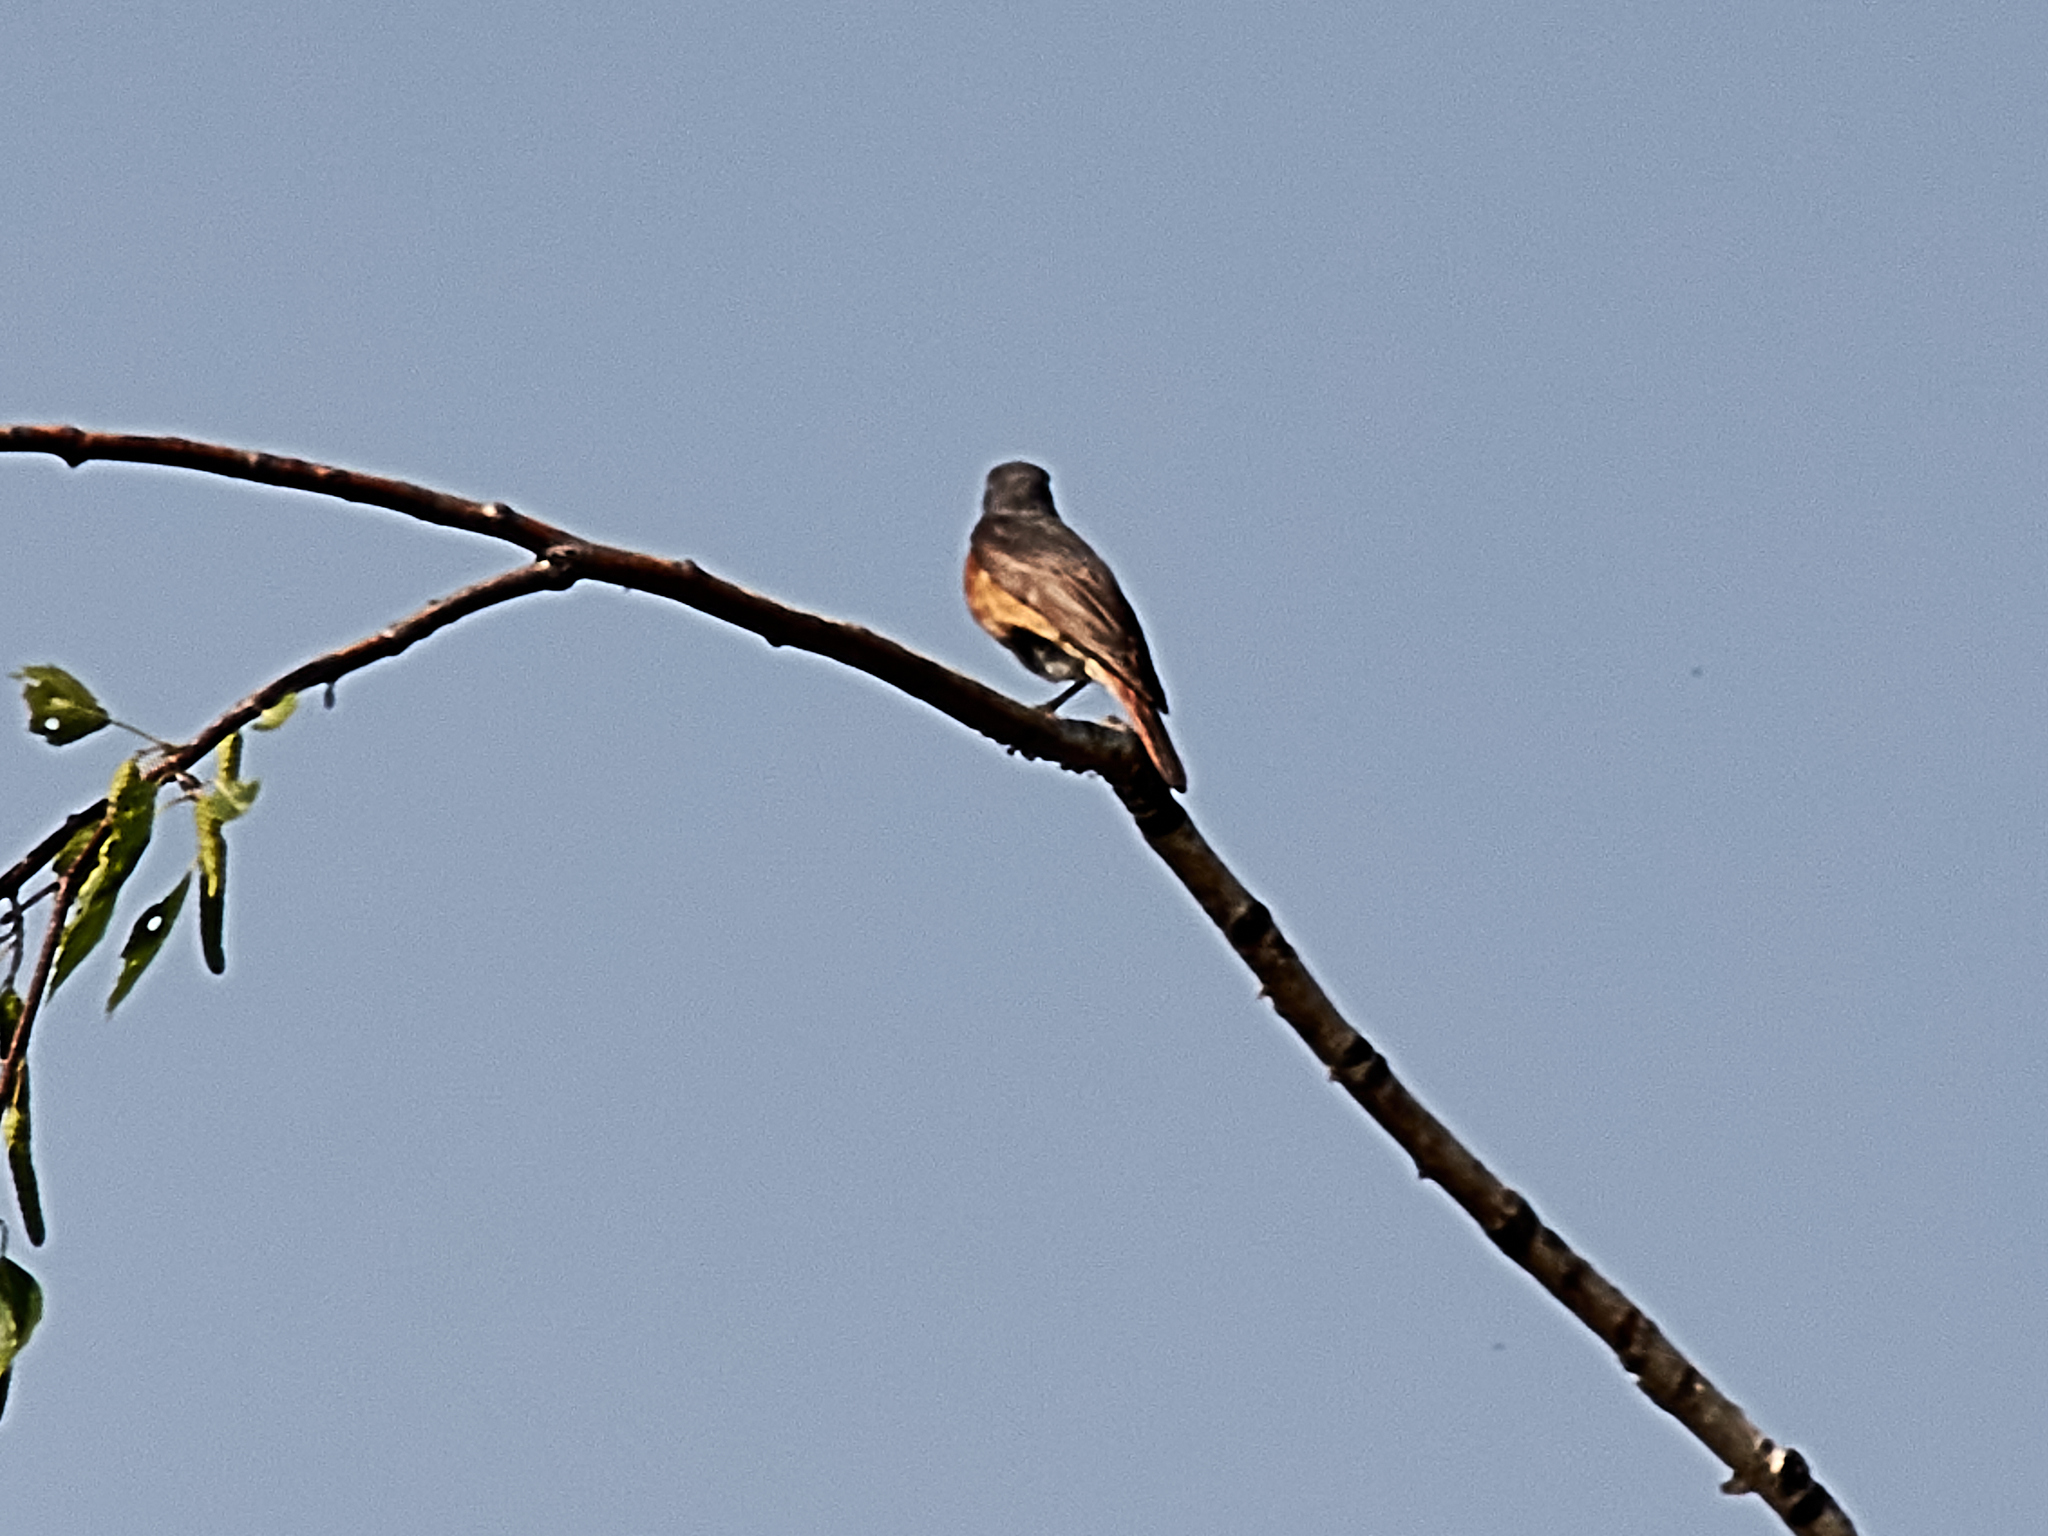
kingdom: Animalia
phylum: Chordata
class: Aves
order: Passeriformes
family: Muscicapidae
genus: Phoenicurus
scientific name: Phoenicurus phoenicurus
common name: Common redstart
